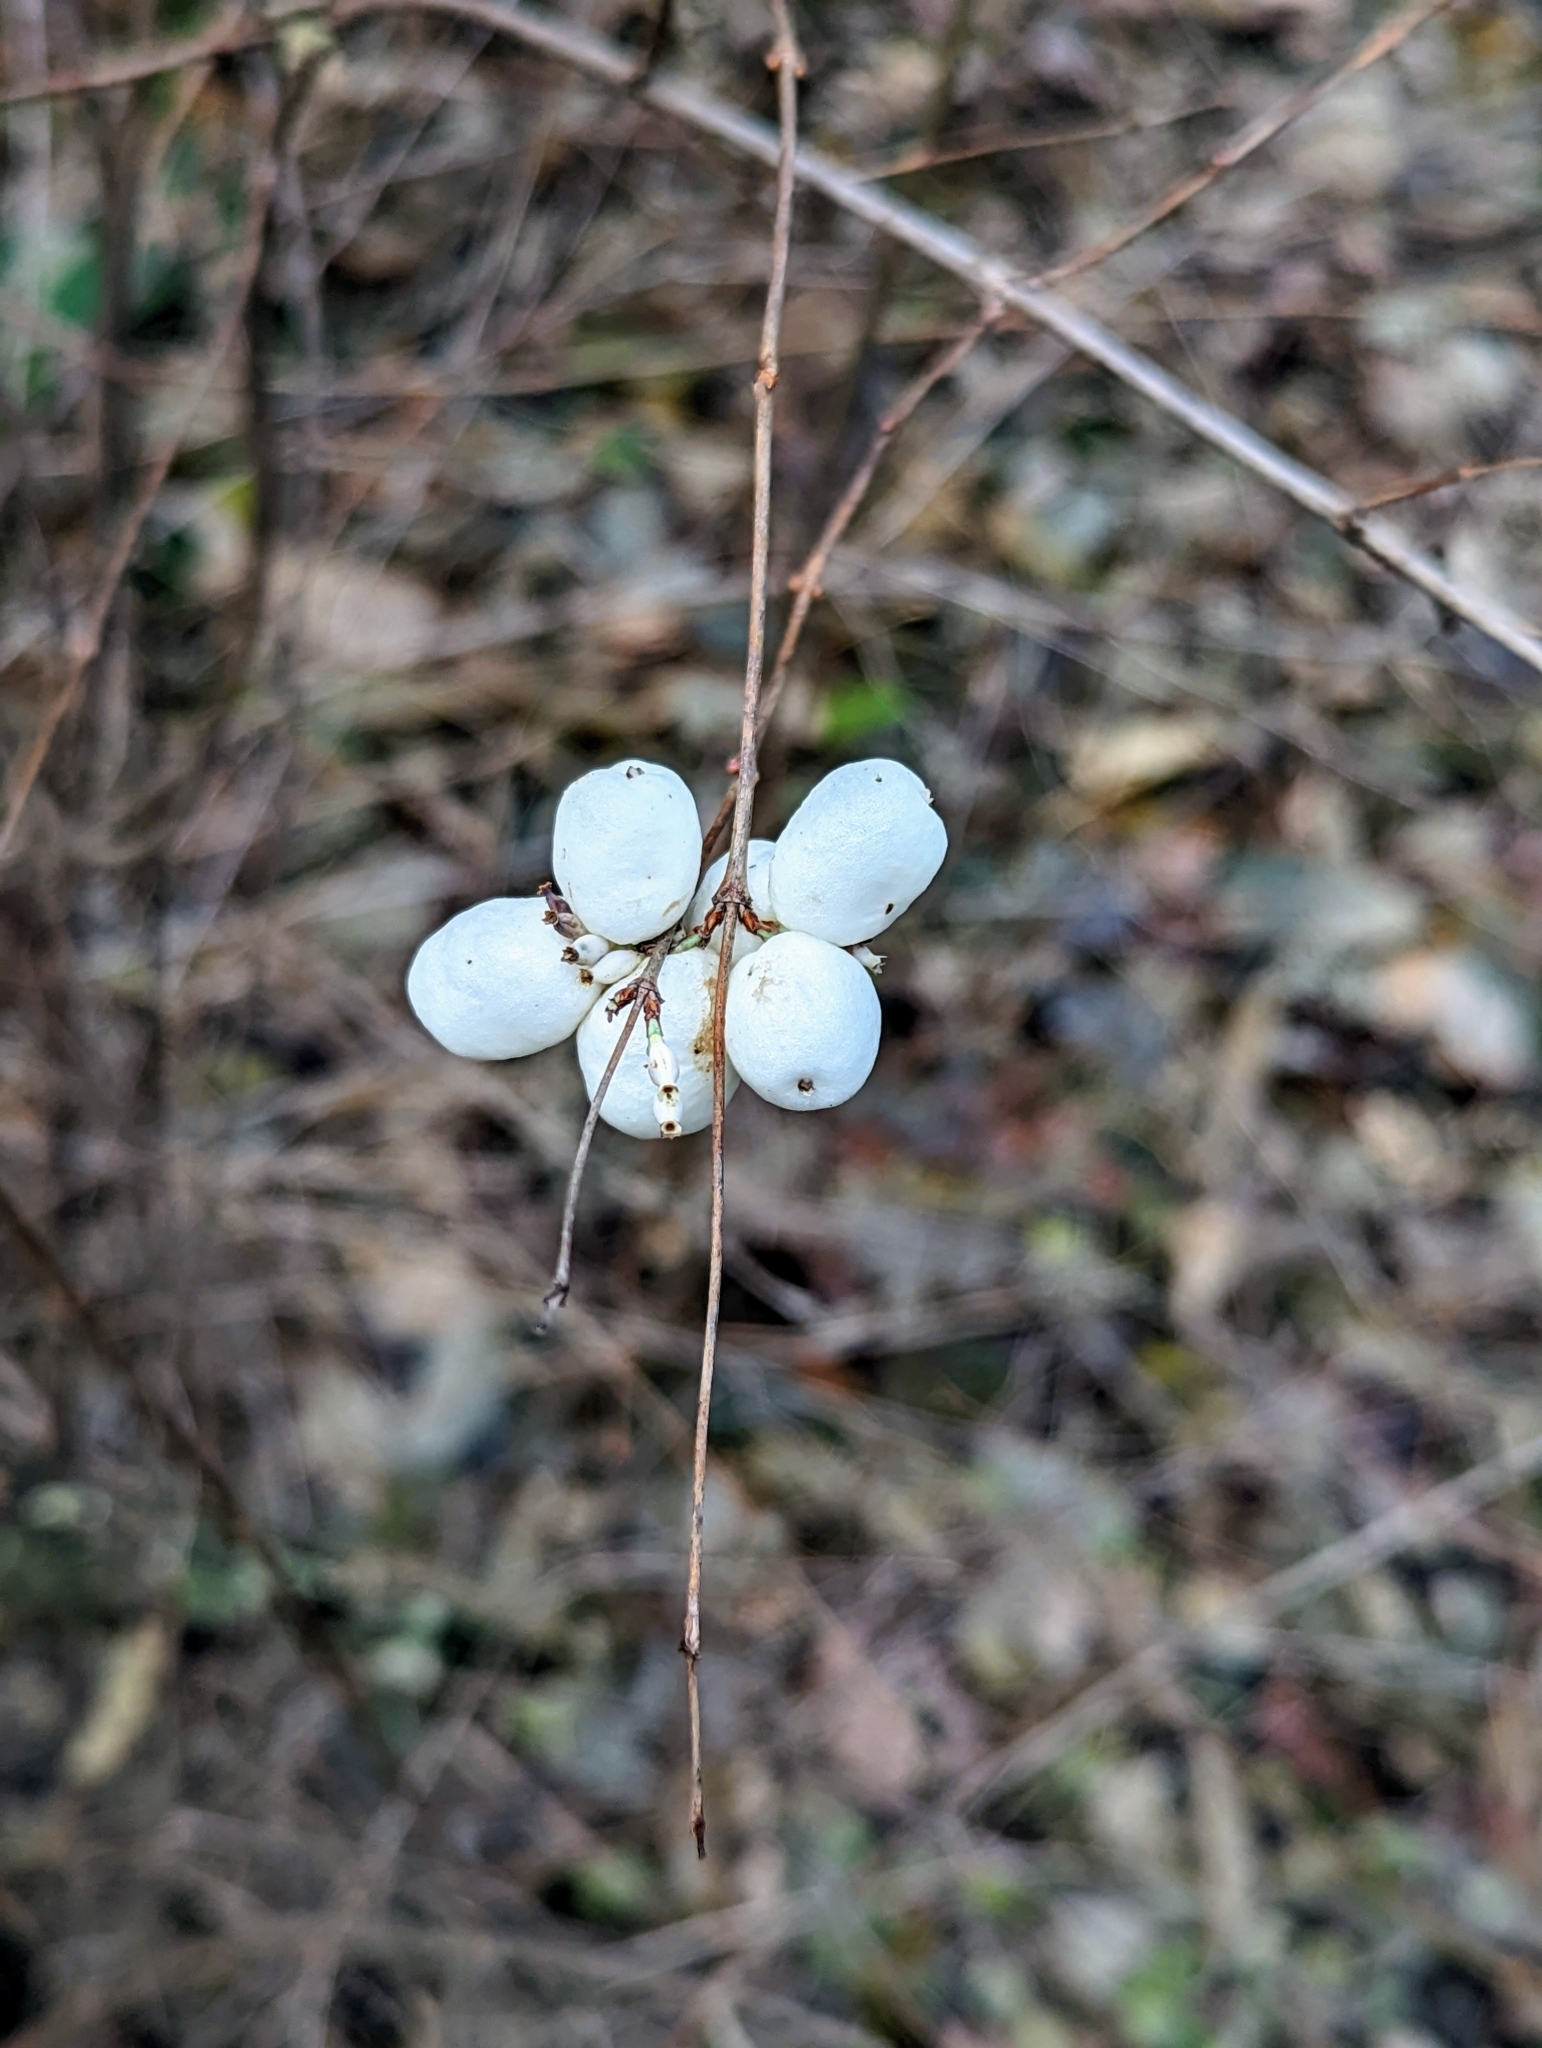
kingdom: Plantae
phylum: Tracheophyta
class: Magnoliopsida
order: Dipsacales
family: Caprifoliaceae
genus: Symphoricarpos
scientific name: Symphoricarpos albus
